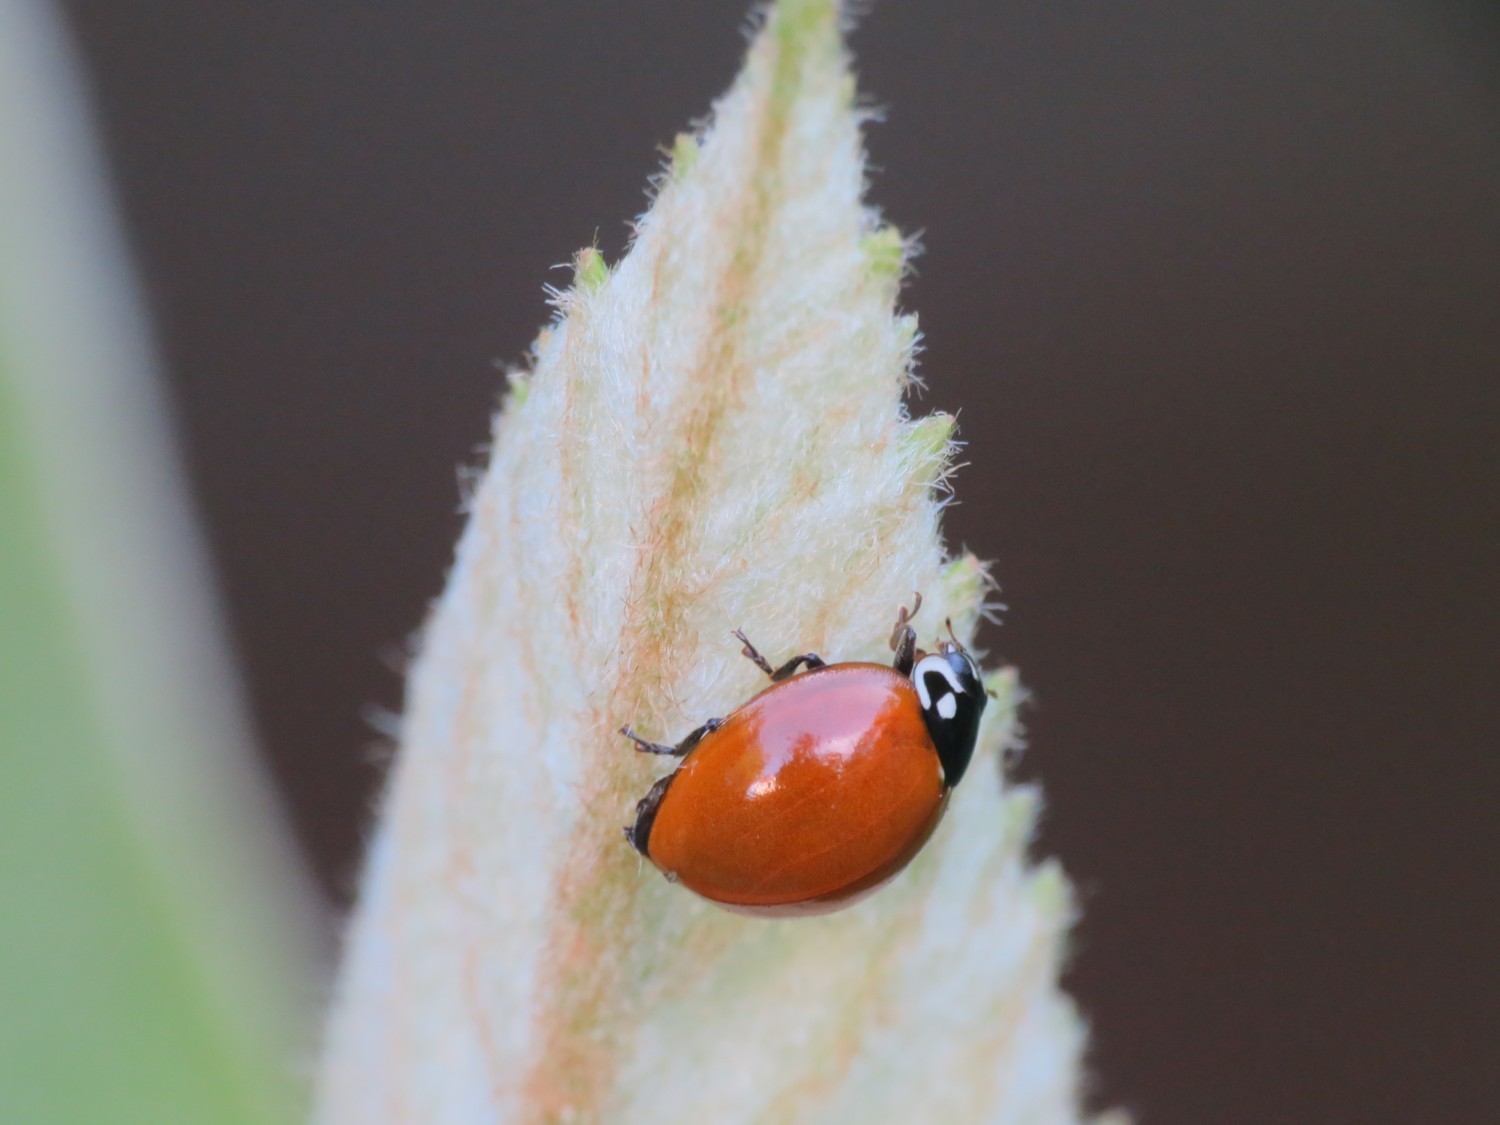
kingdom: Animalia
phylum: Arthropoda
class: Insecta
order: Coleoptera
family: Coccinellidae
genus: Cycloneda
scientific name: Cycloneda sanguinea
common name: Ladybird beetle
